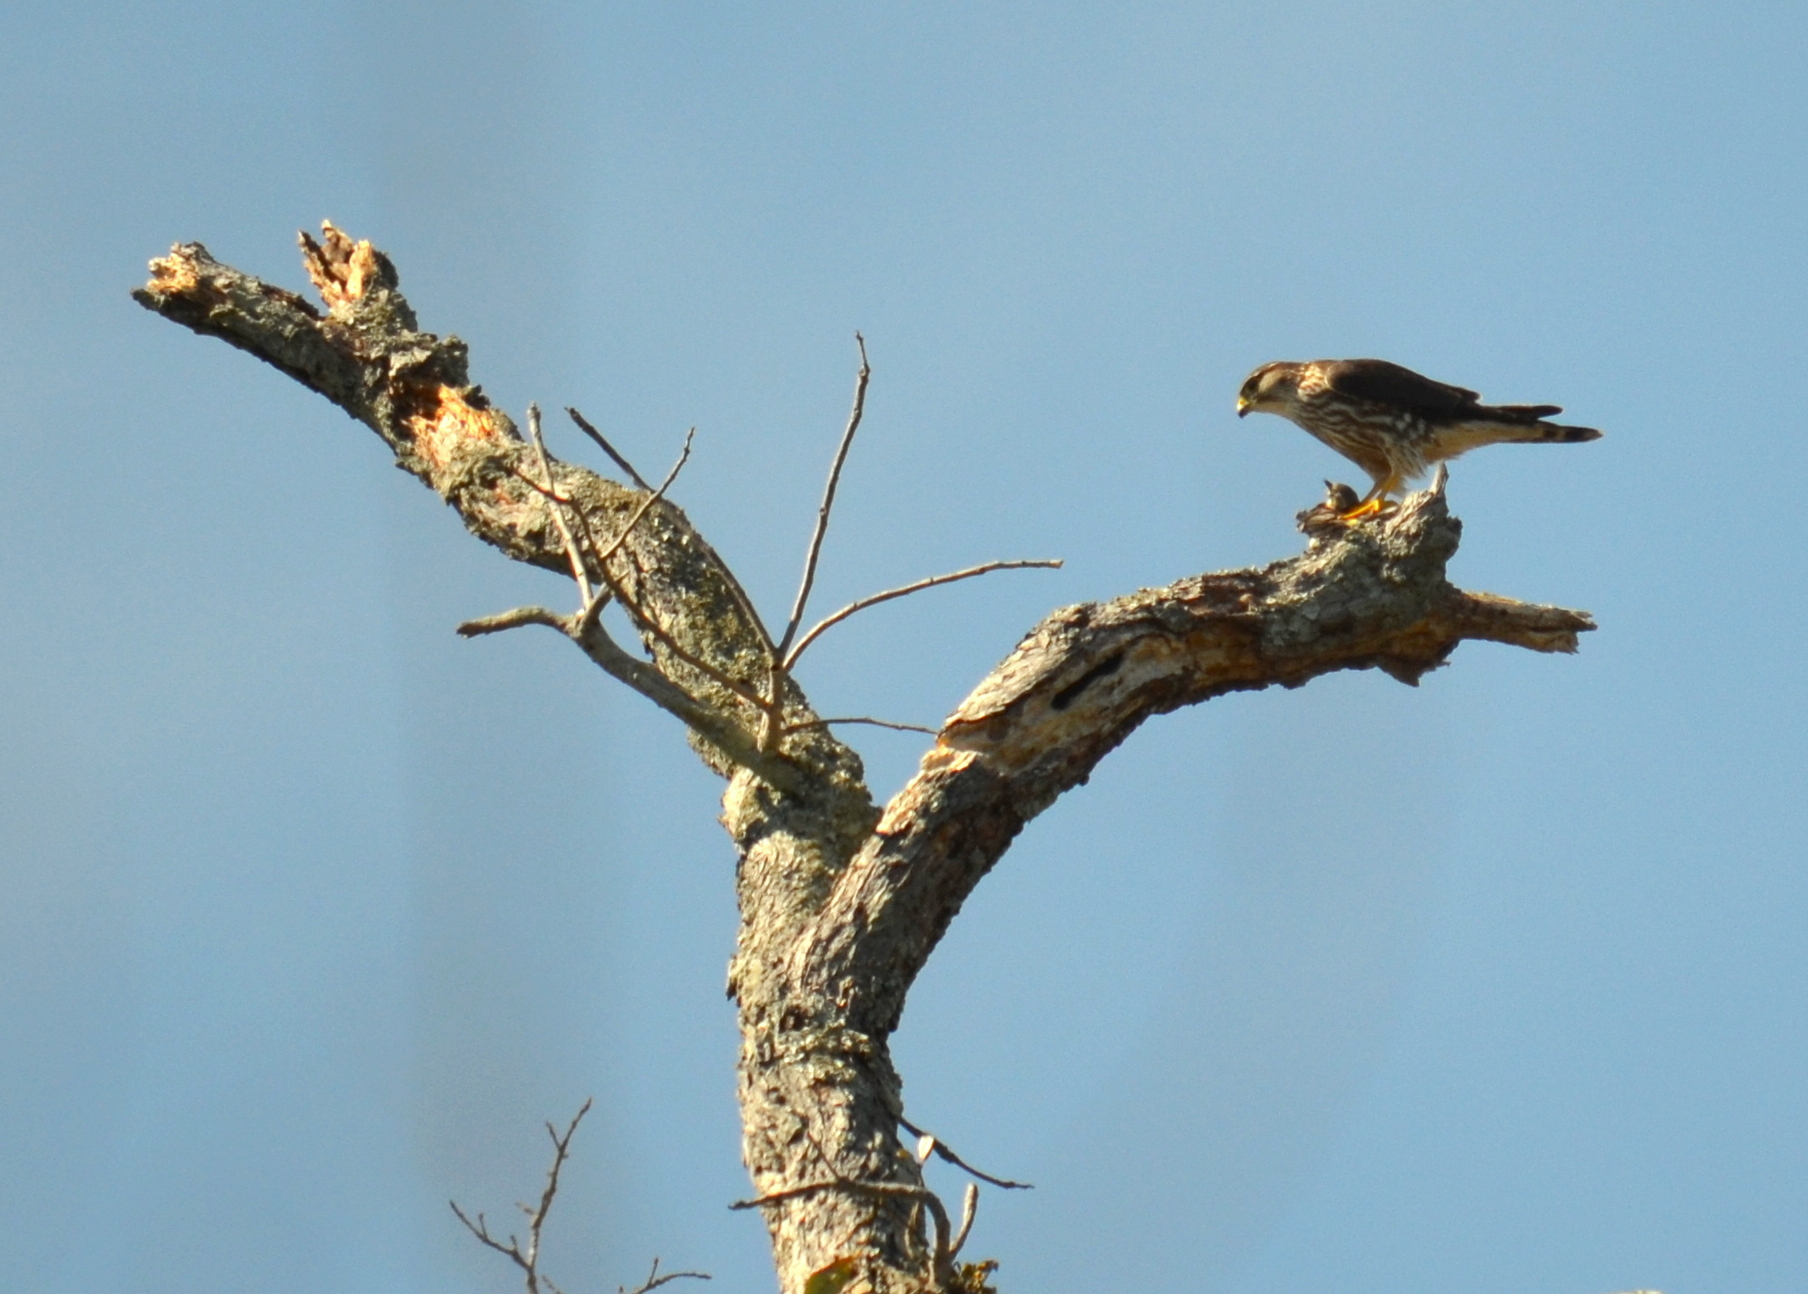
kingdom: Animalia
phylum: Chordata
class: Aves
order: Falconiformes
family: Falconidae
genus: Falco
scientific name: Falco columbarius
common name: Merlin
